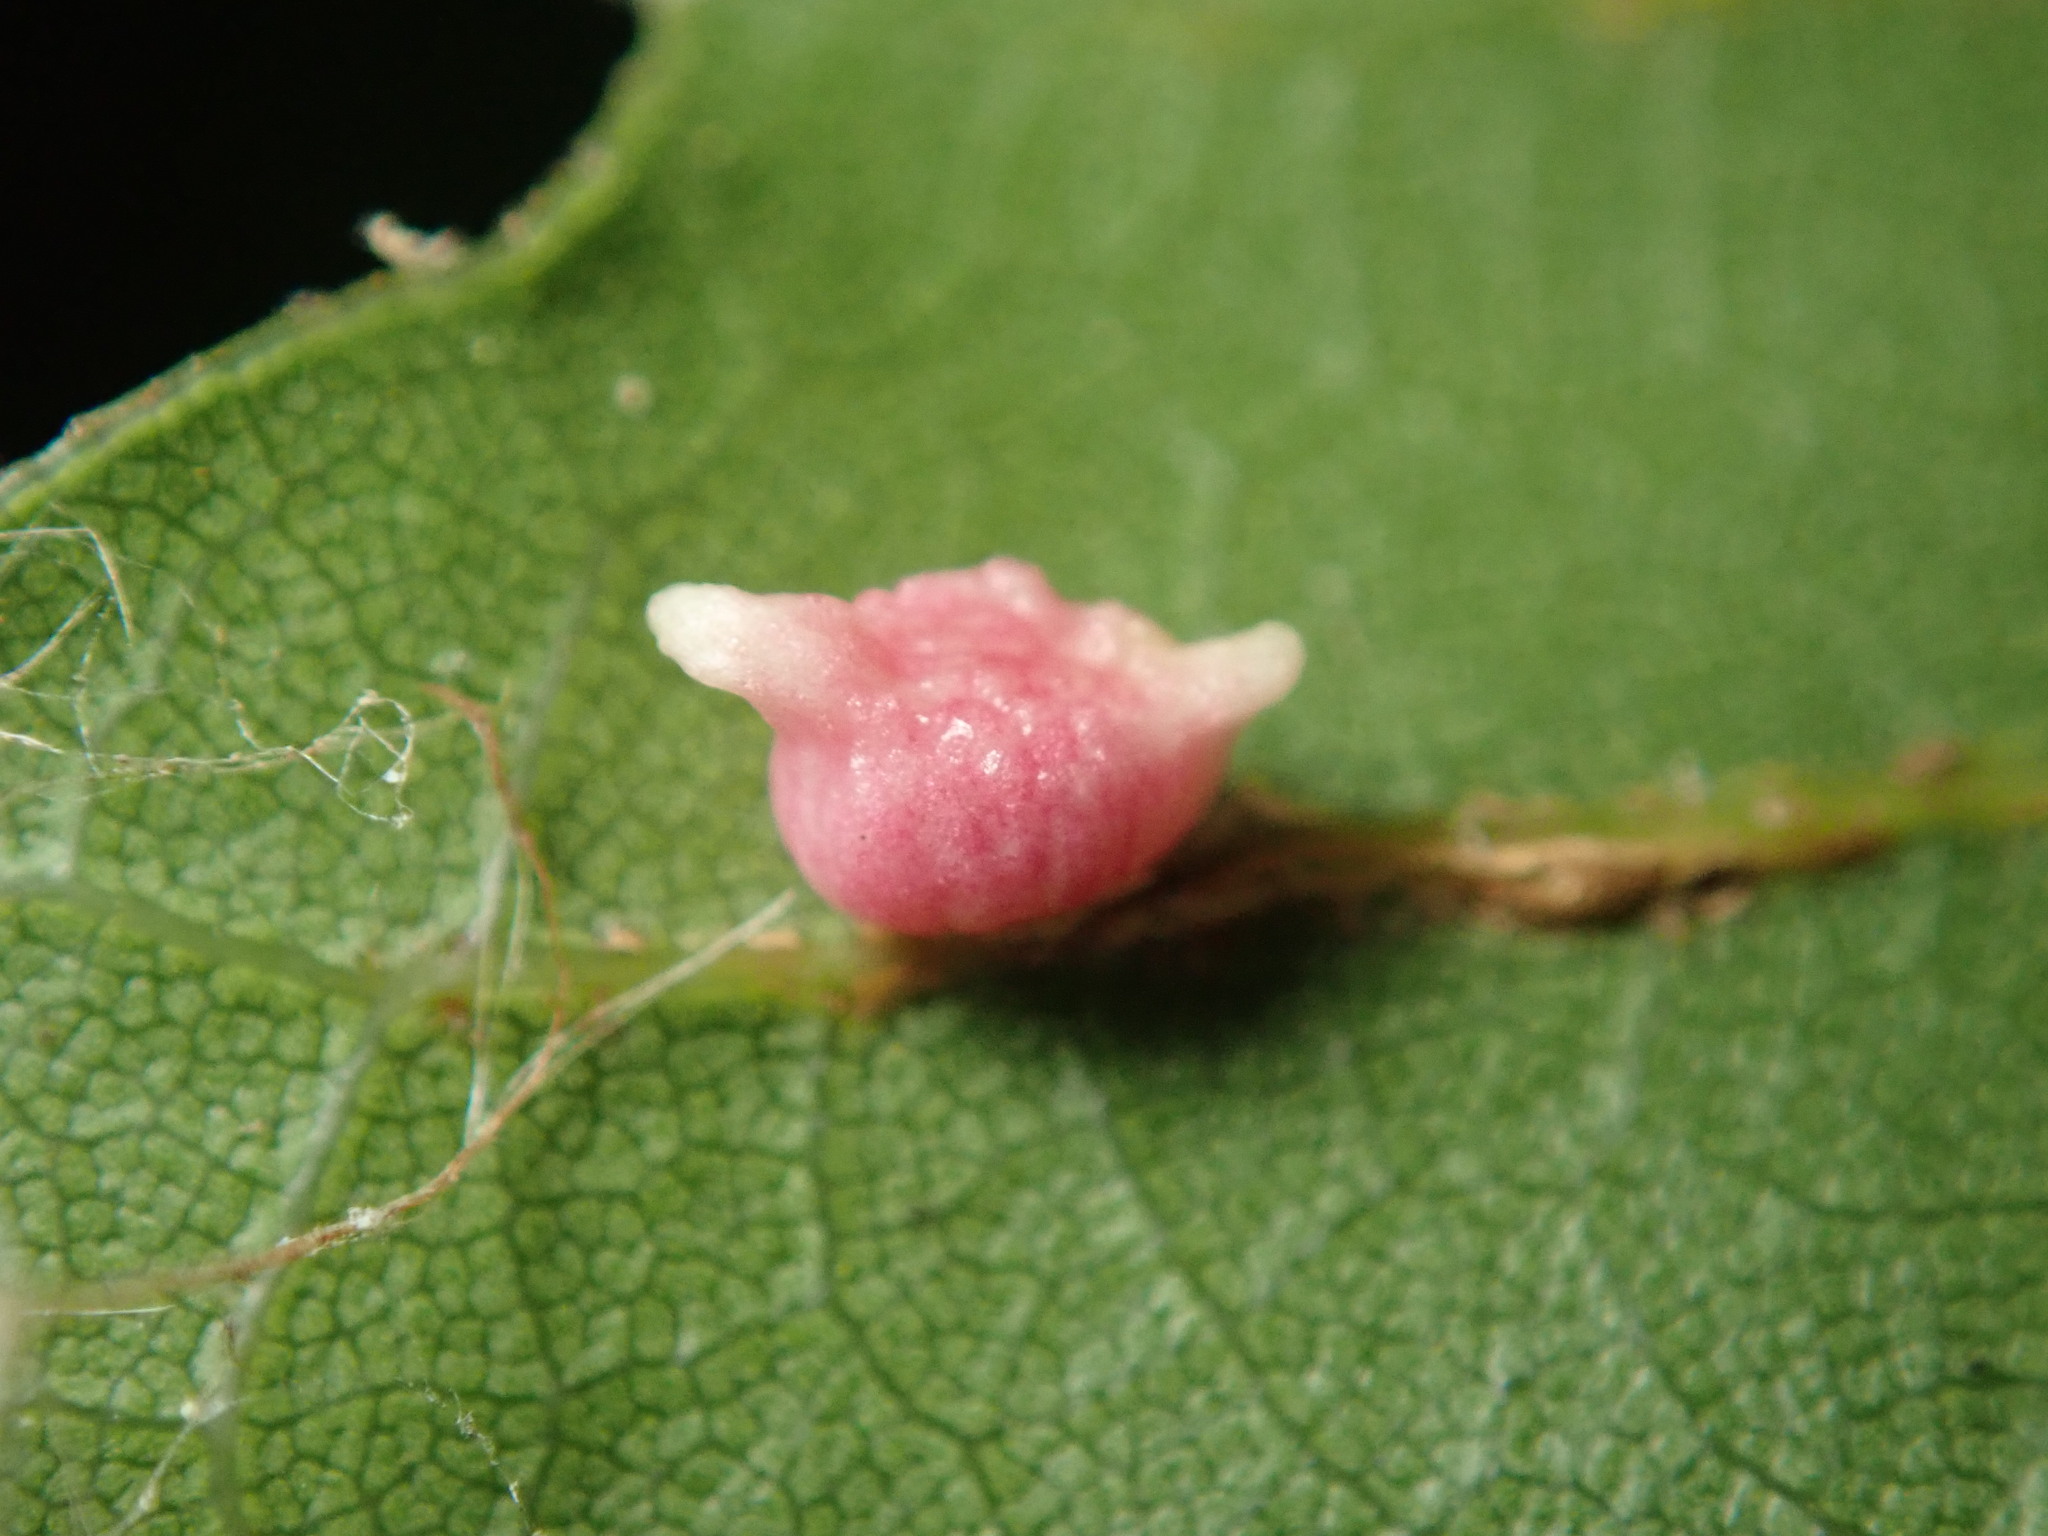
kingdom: Animalia
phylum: Arthropoda
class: Insecta
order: Hymenoptera
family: Cynipidae
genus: Dryocosmus
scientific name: Dryocosmus
